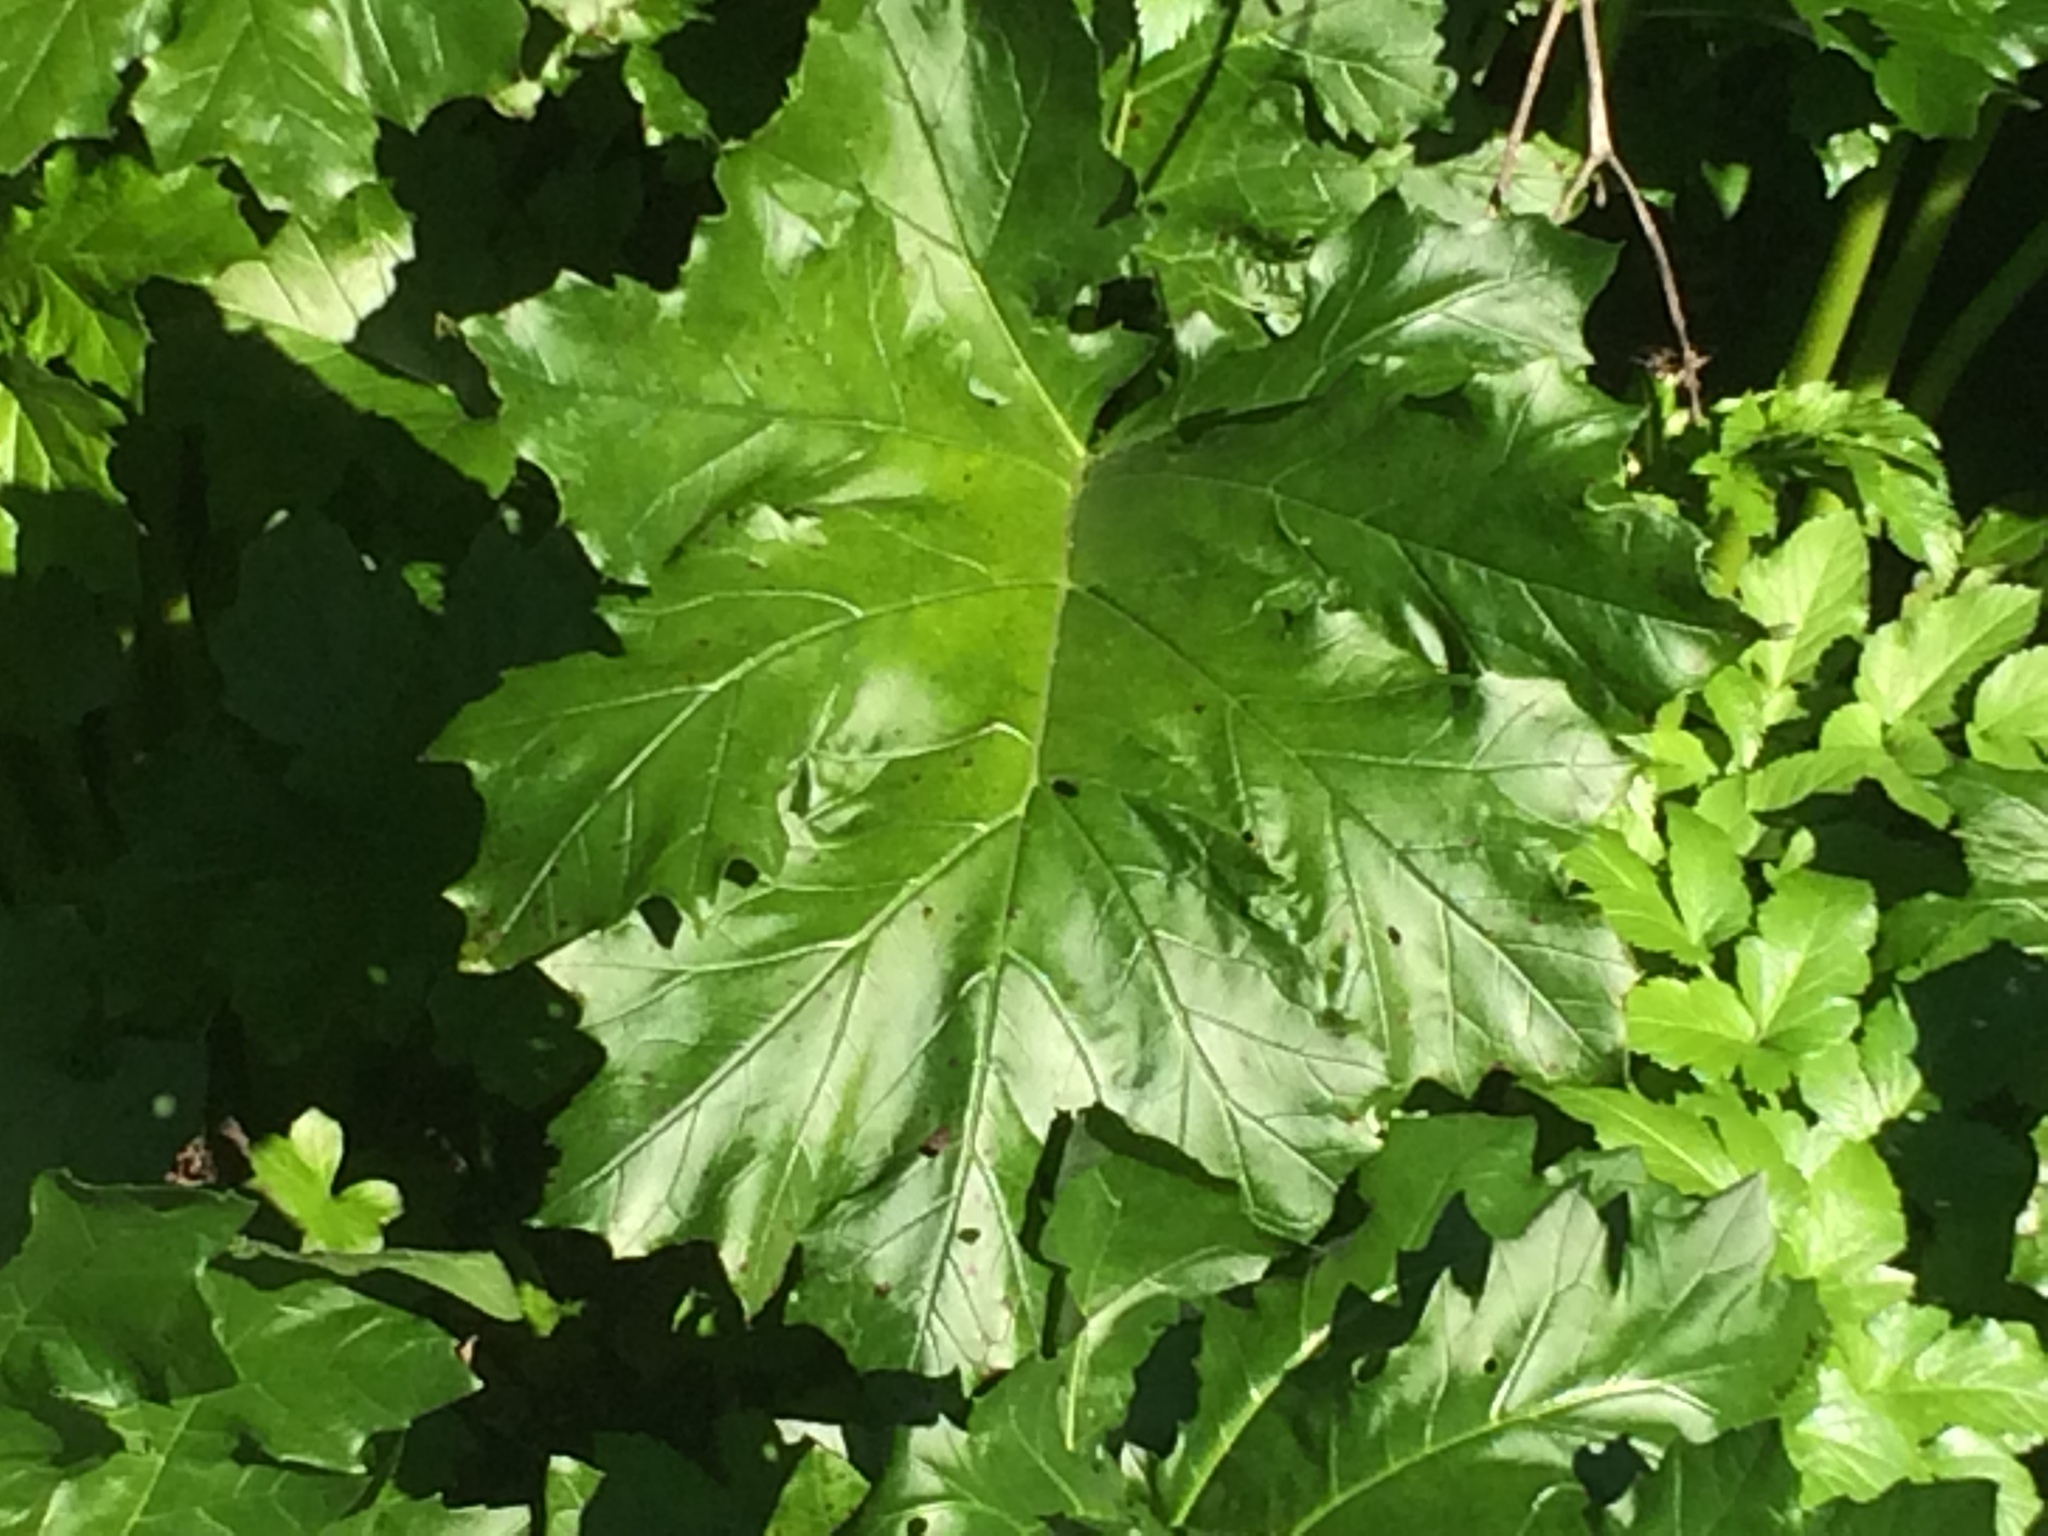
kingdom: Plantae
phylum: Tracheophyta
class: Magnoliopsida
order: Lamiales
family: Acanthaceae
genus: Acanthus
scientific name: Acanthus mollis
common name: Bear's-breech
